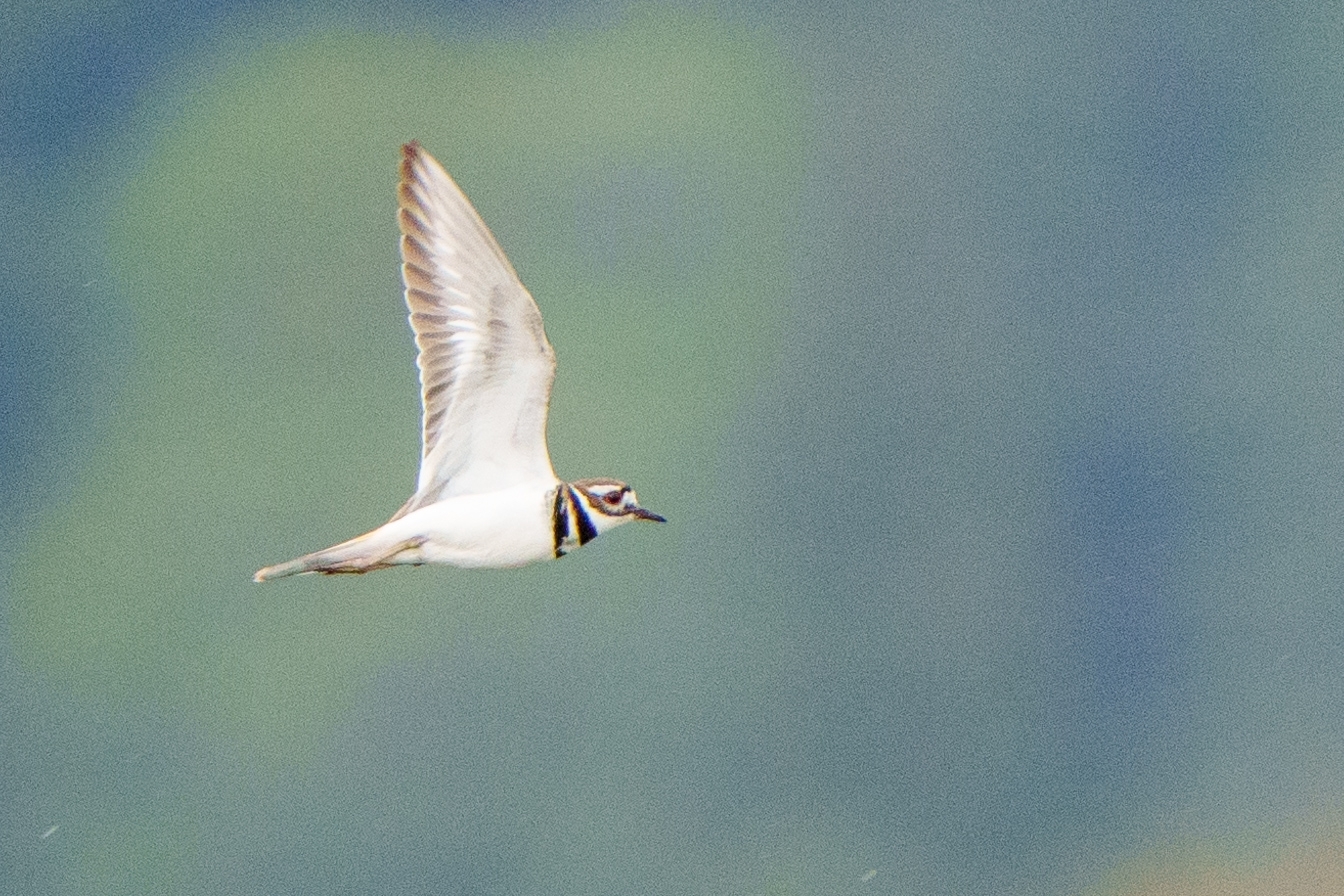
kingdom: Animalia
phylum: Chordata
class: Aves
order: Charadriiformes
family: Charadriidae
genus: Charadrius
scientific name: Charadrius vociferus
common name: Killdeer
